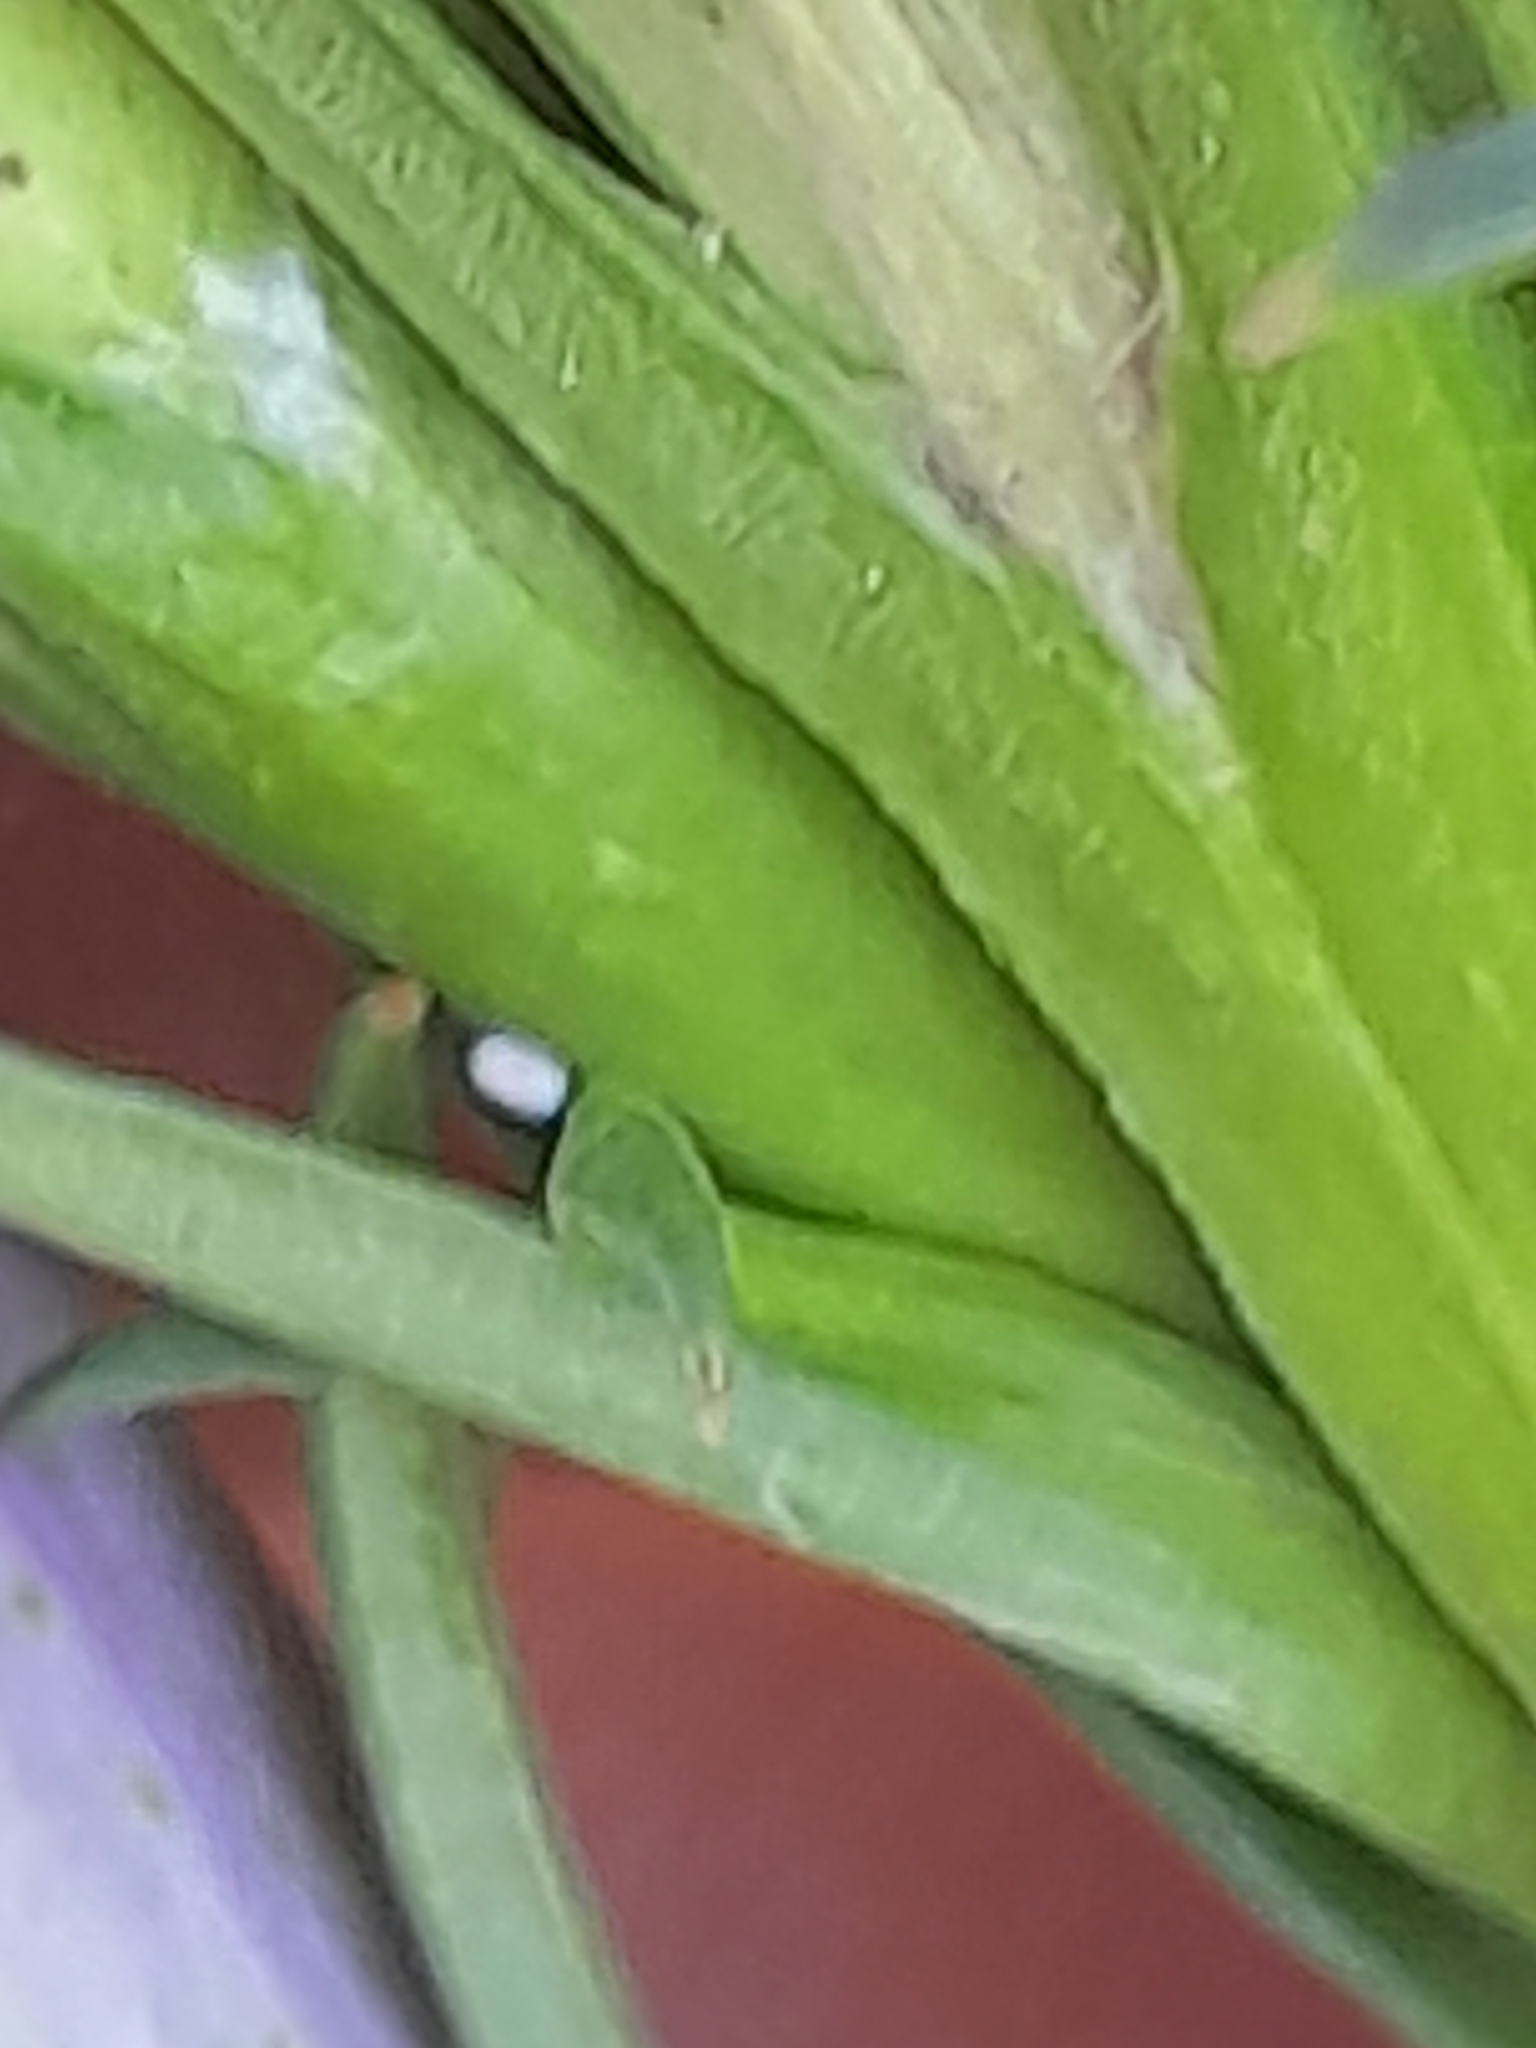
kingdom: Animalia
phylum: Arthropoda
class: Insecta
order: Lepidoptera
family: Lycaenidae
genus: Maculinea
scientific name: Maculinea alcon
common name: Alcon blue
